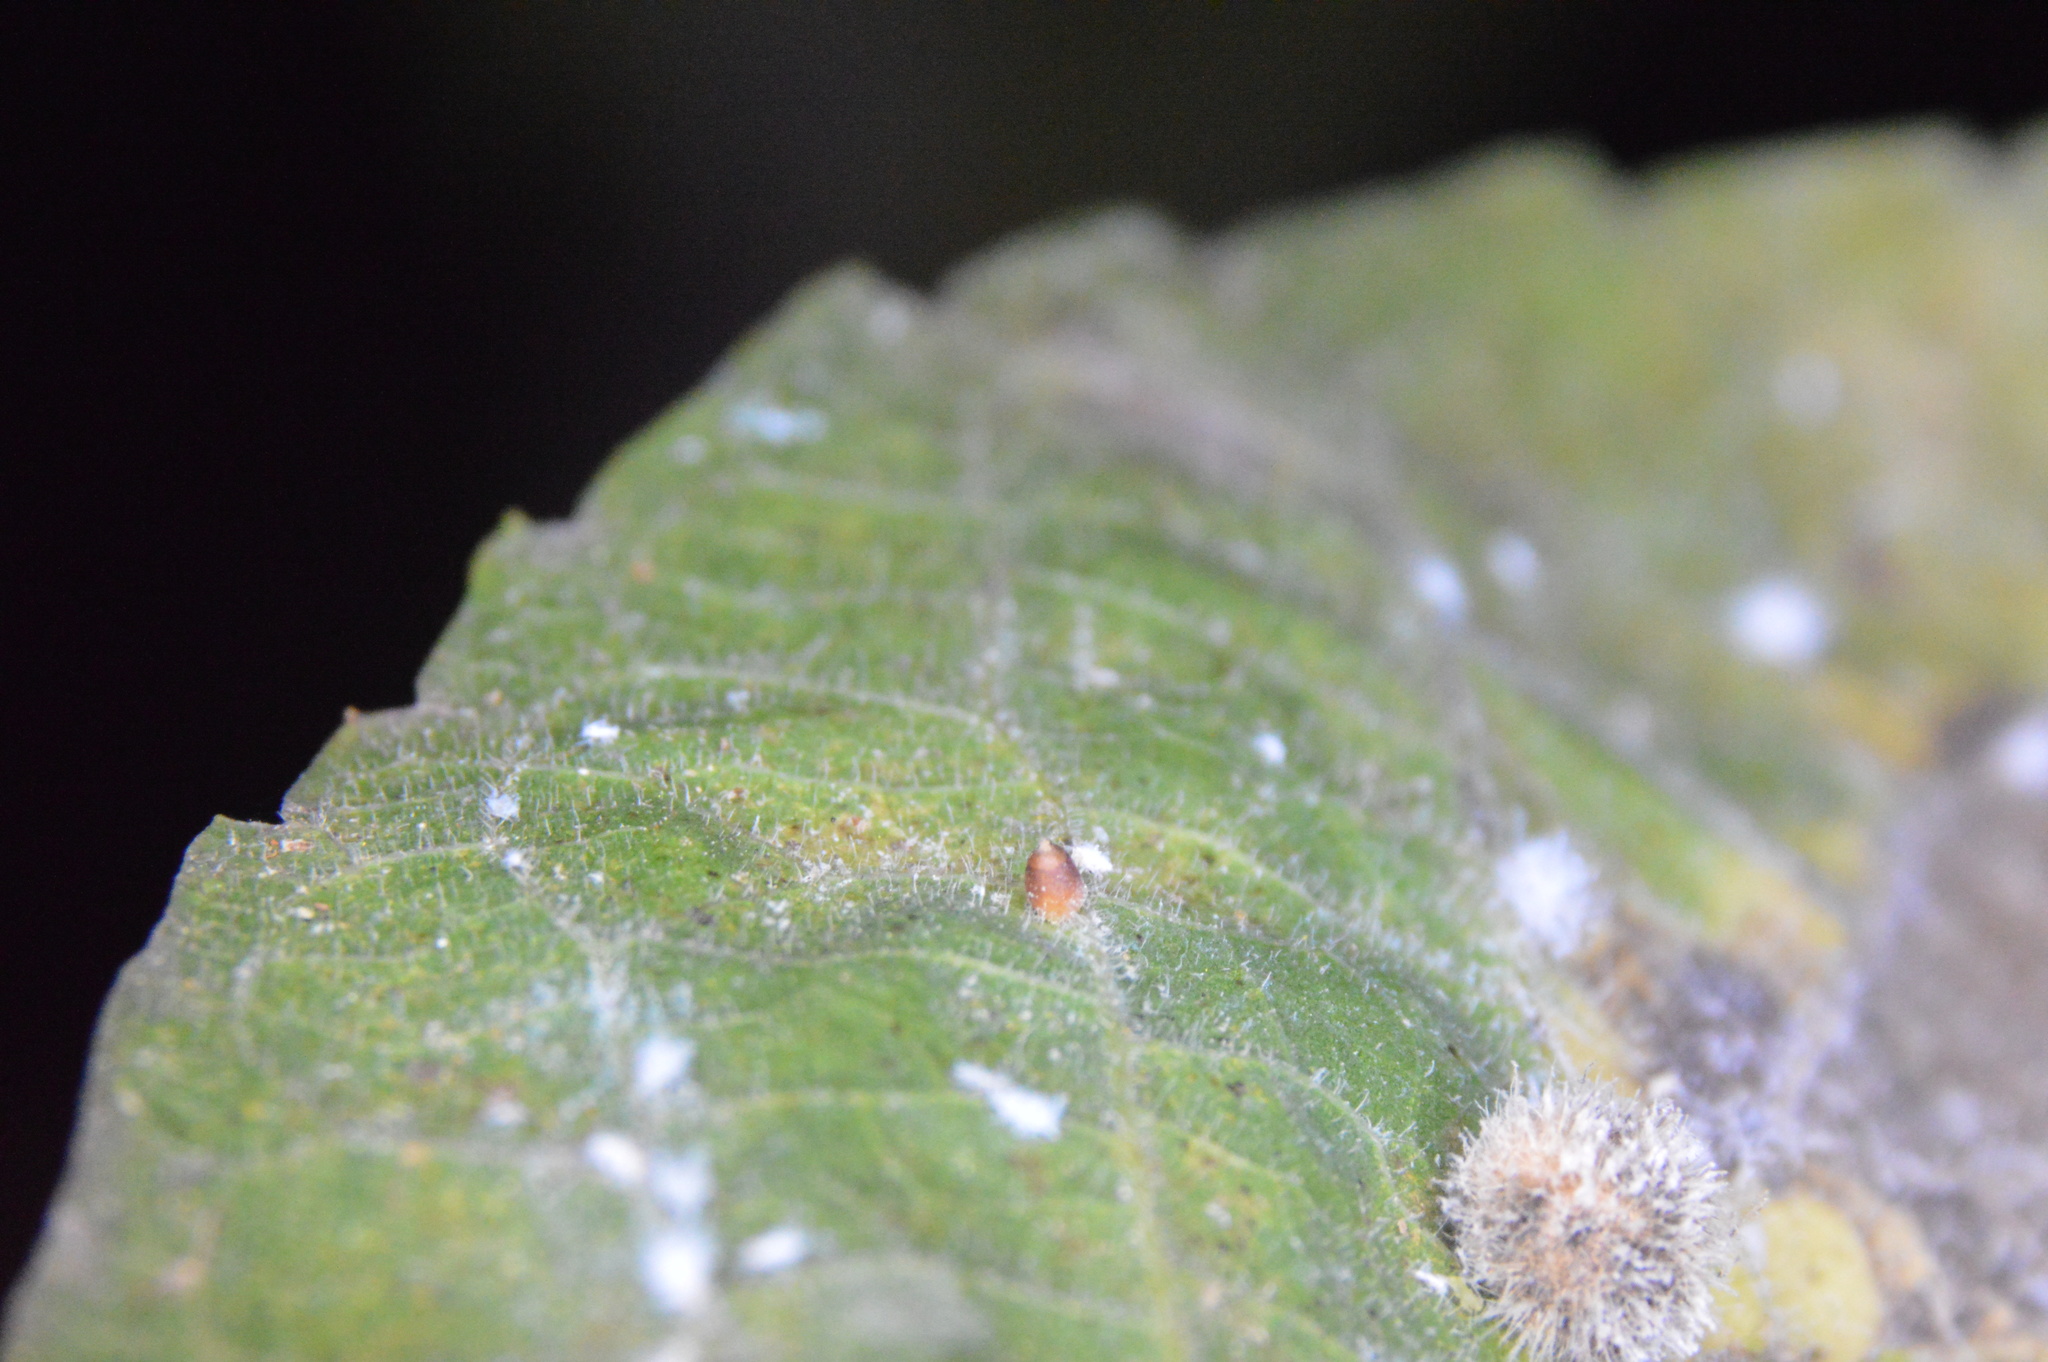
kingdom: Animalia
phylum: Arthropoda
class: Insecta
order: Diptera
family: Cecidomyiidae
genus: Celticecis
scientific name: Celticecis cupiformis
